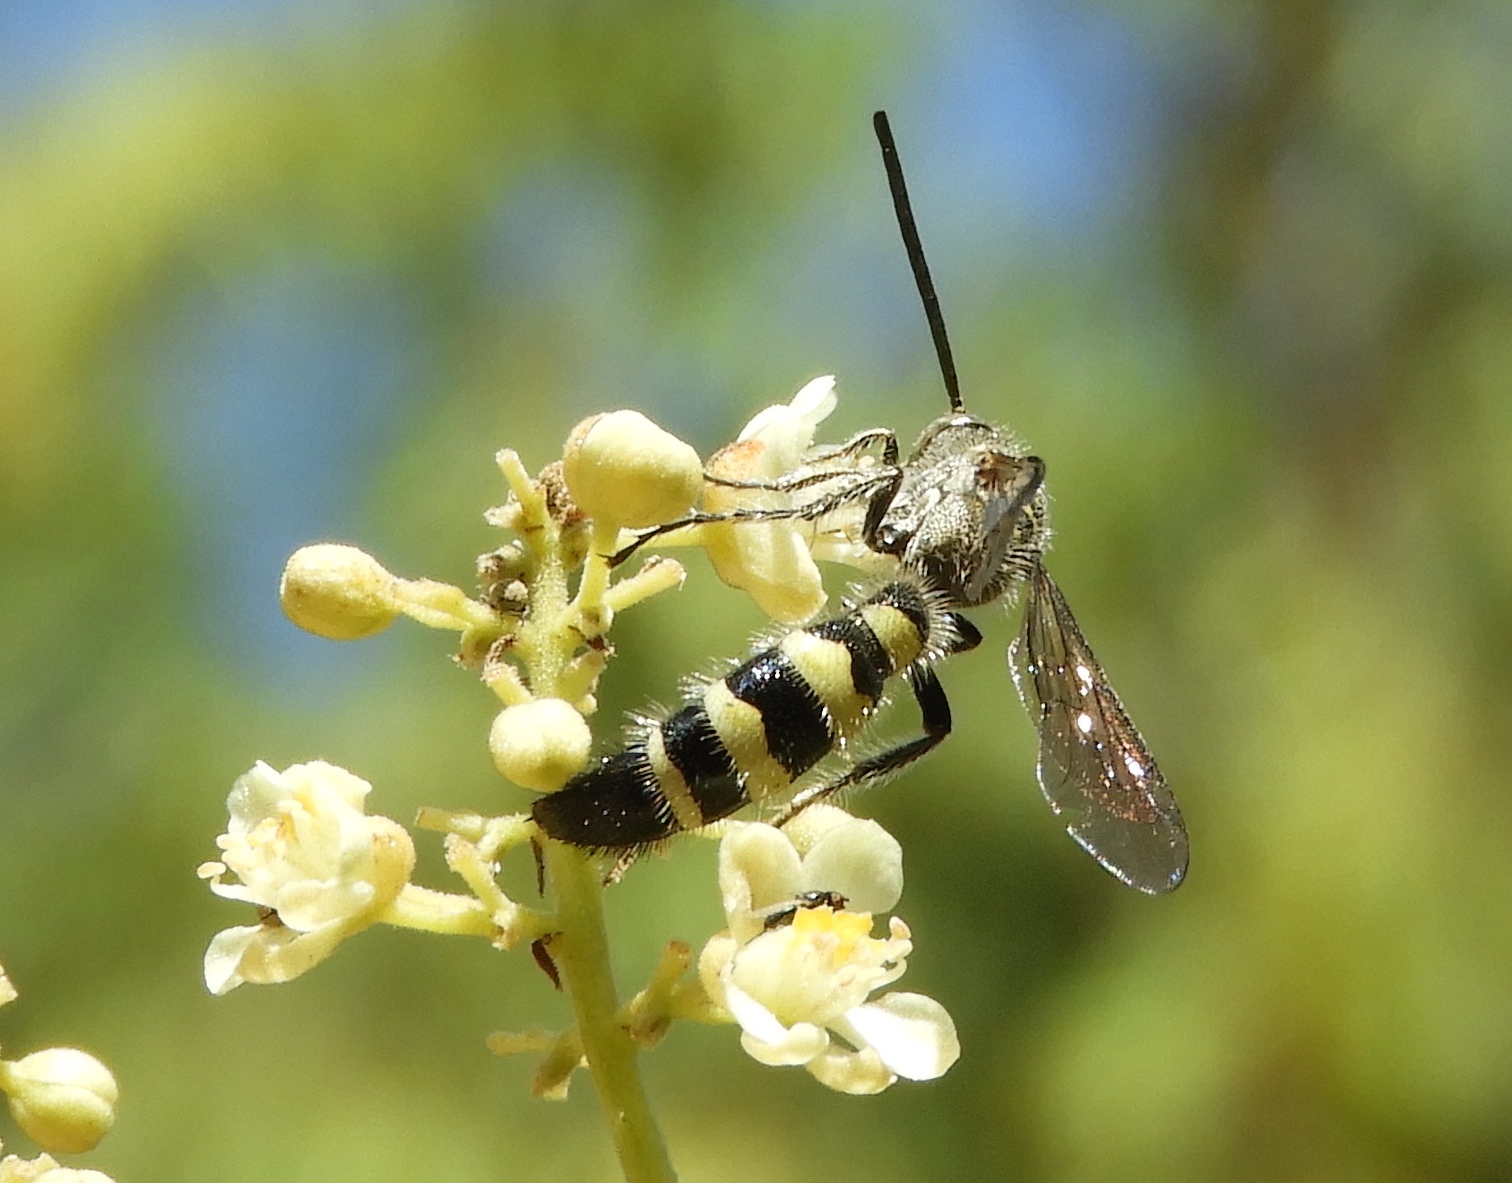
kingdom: Animalia
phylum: Arthropoda
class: Insecta
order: Hymenoptera
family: Scoliidae
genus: Dielis
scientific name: Dielis tolteca
